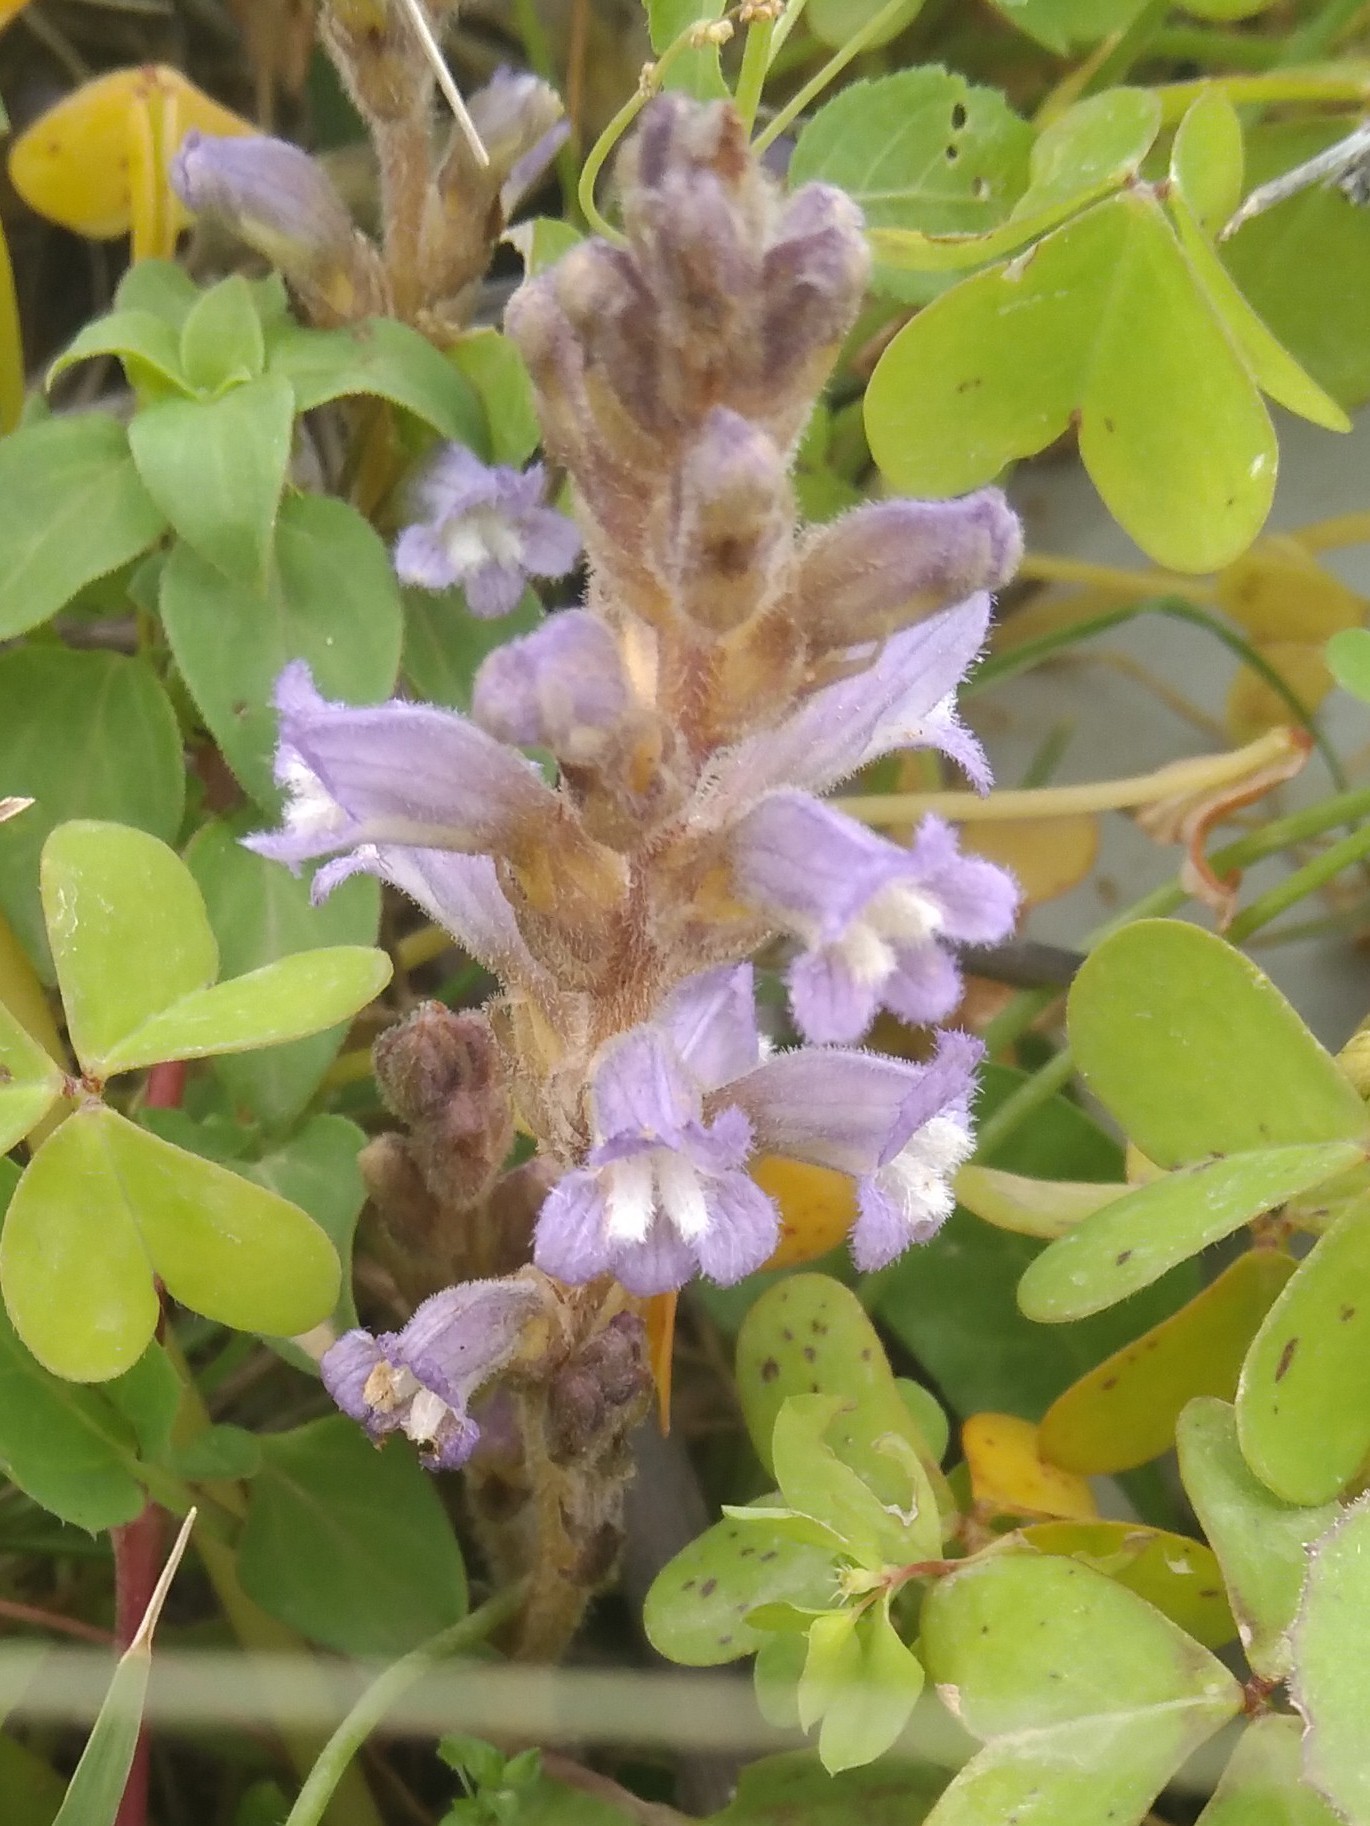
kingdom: Plantae
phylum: Tracheophyta
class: Magnoliopsida
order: Lamiales
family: Orobanchaceae
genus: Phelipanche
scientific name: Phelipanche mutelii
